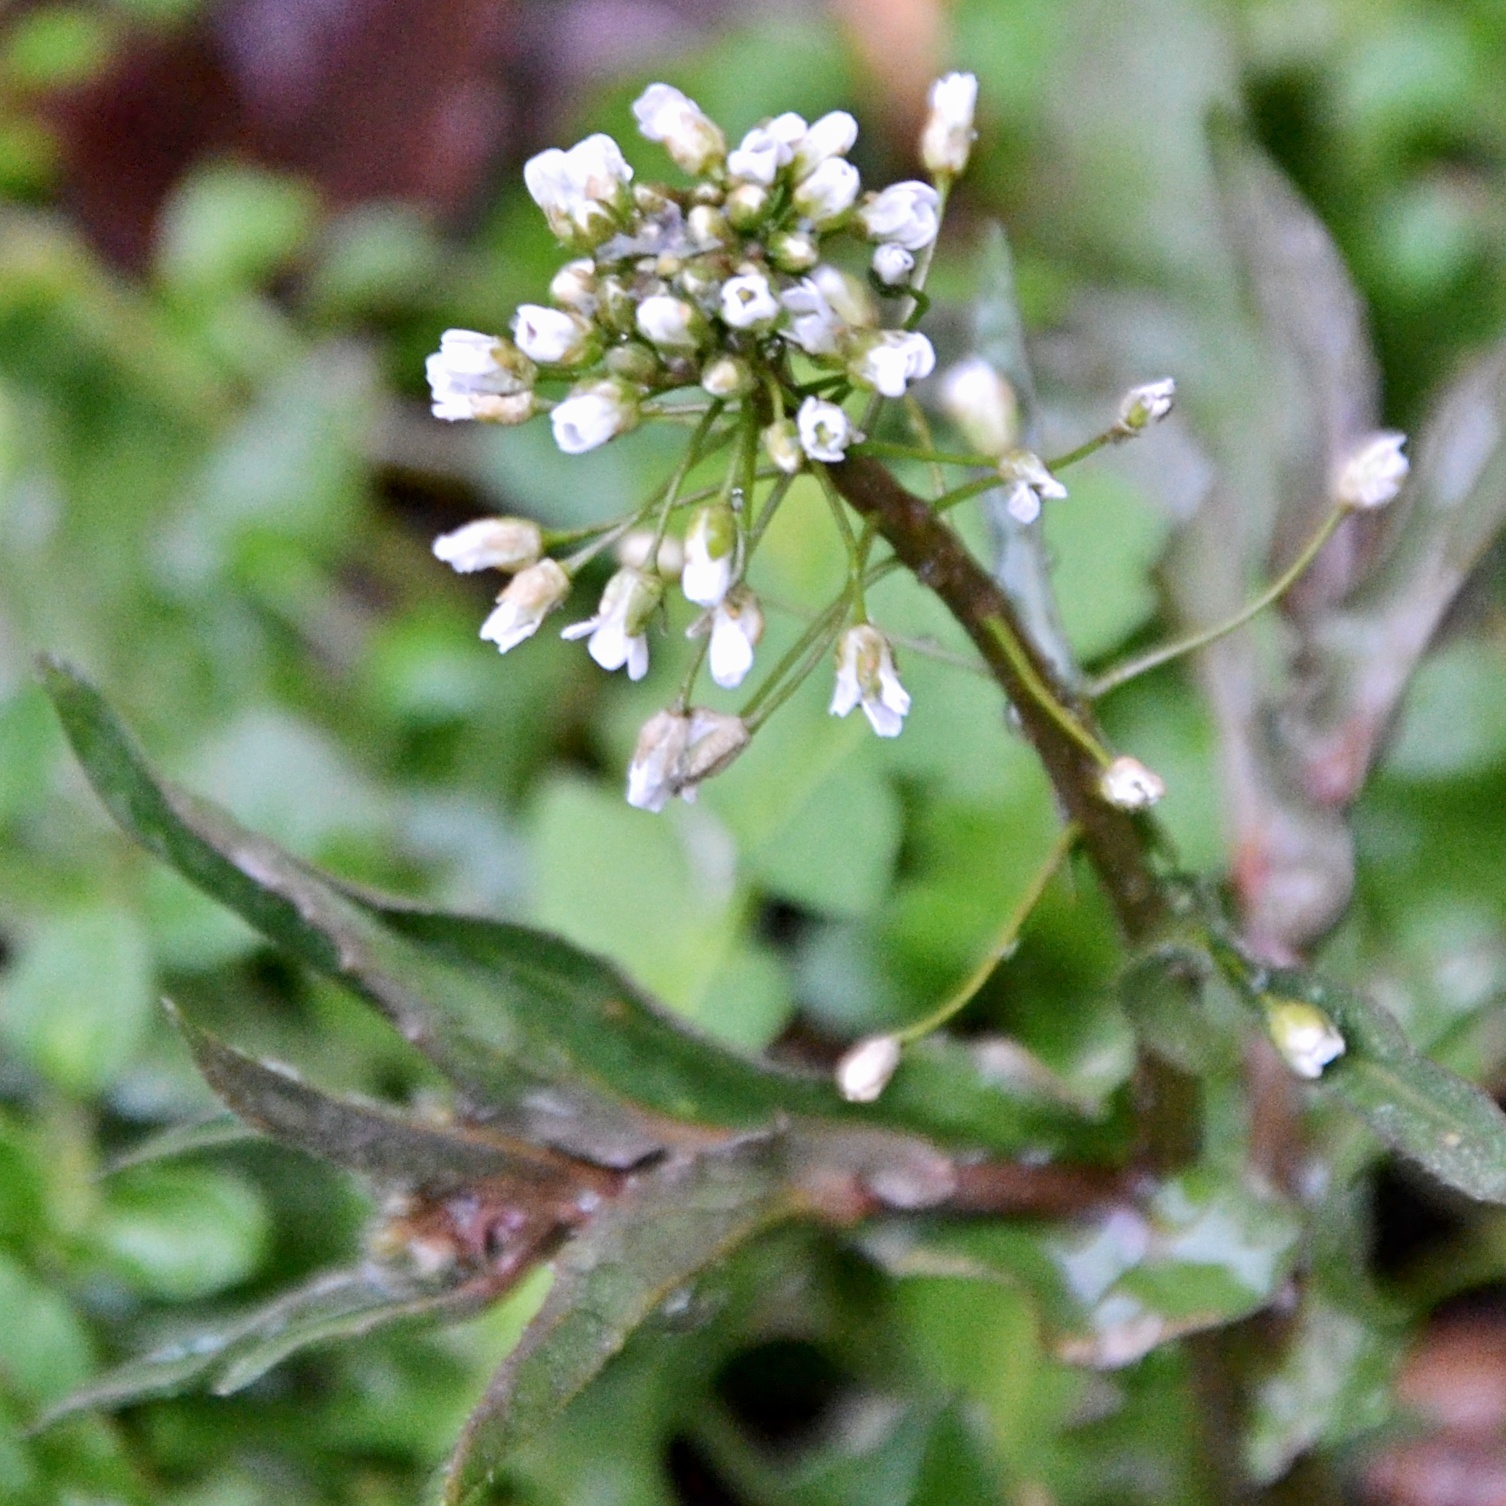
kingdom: Plantae
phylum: Tracheophyta
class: Magnoliopsida
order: Brassicales
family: Brassicaceae
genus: Capsella
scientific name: Capsella bursa-pastoris
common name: Shepherd's purse
